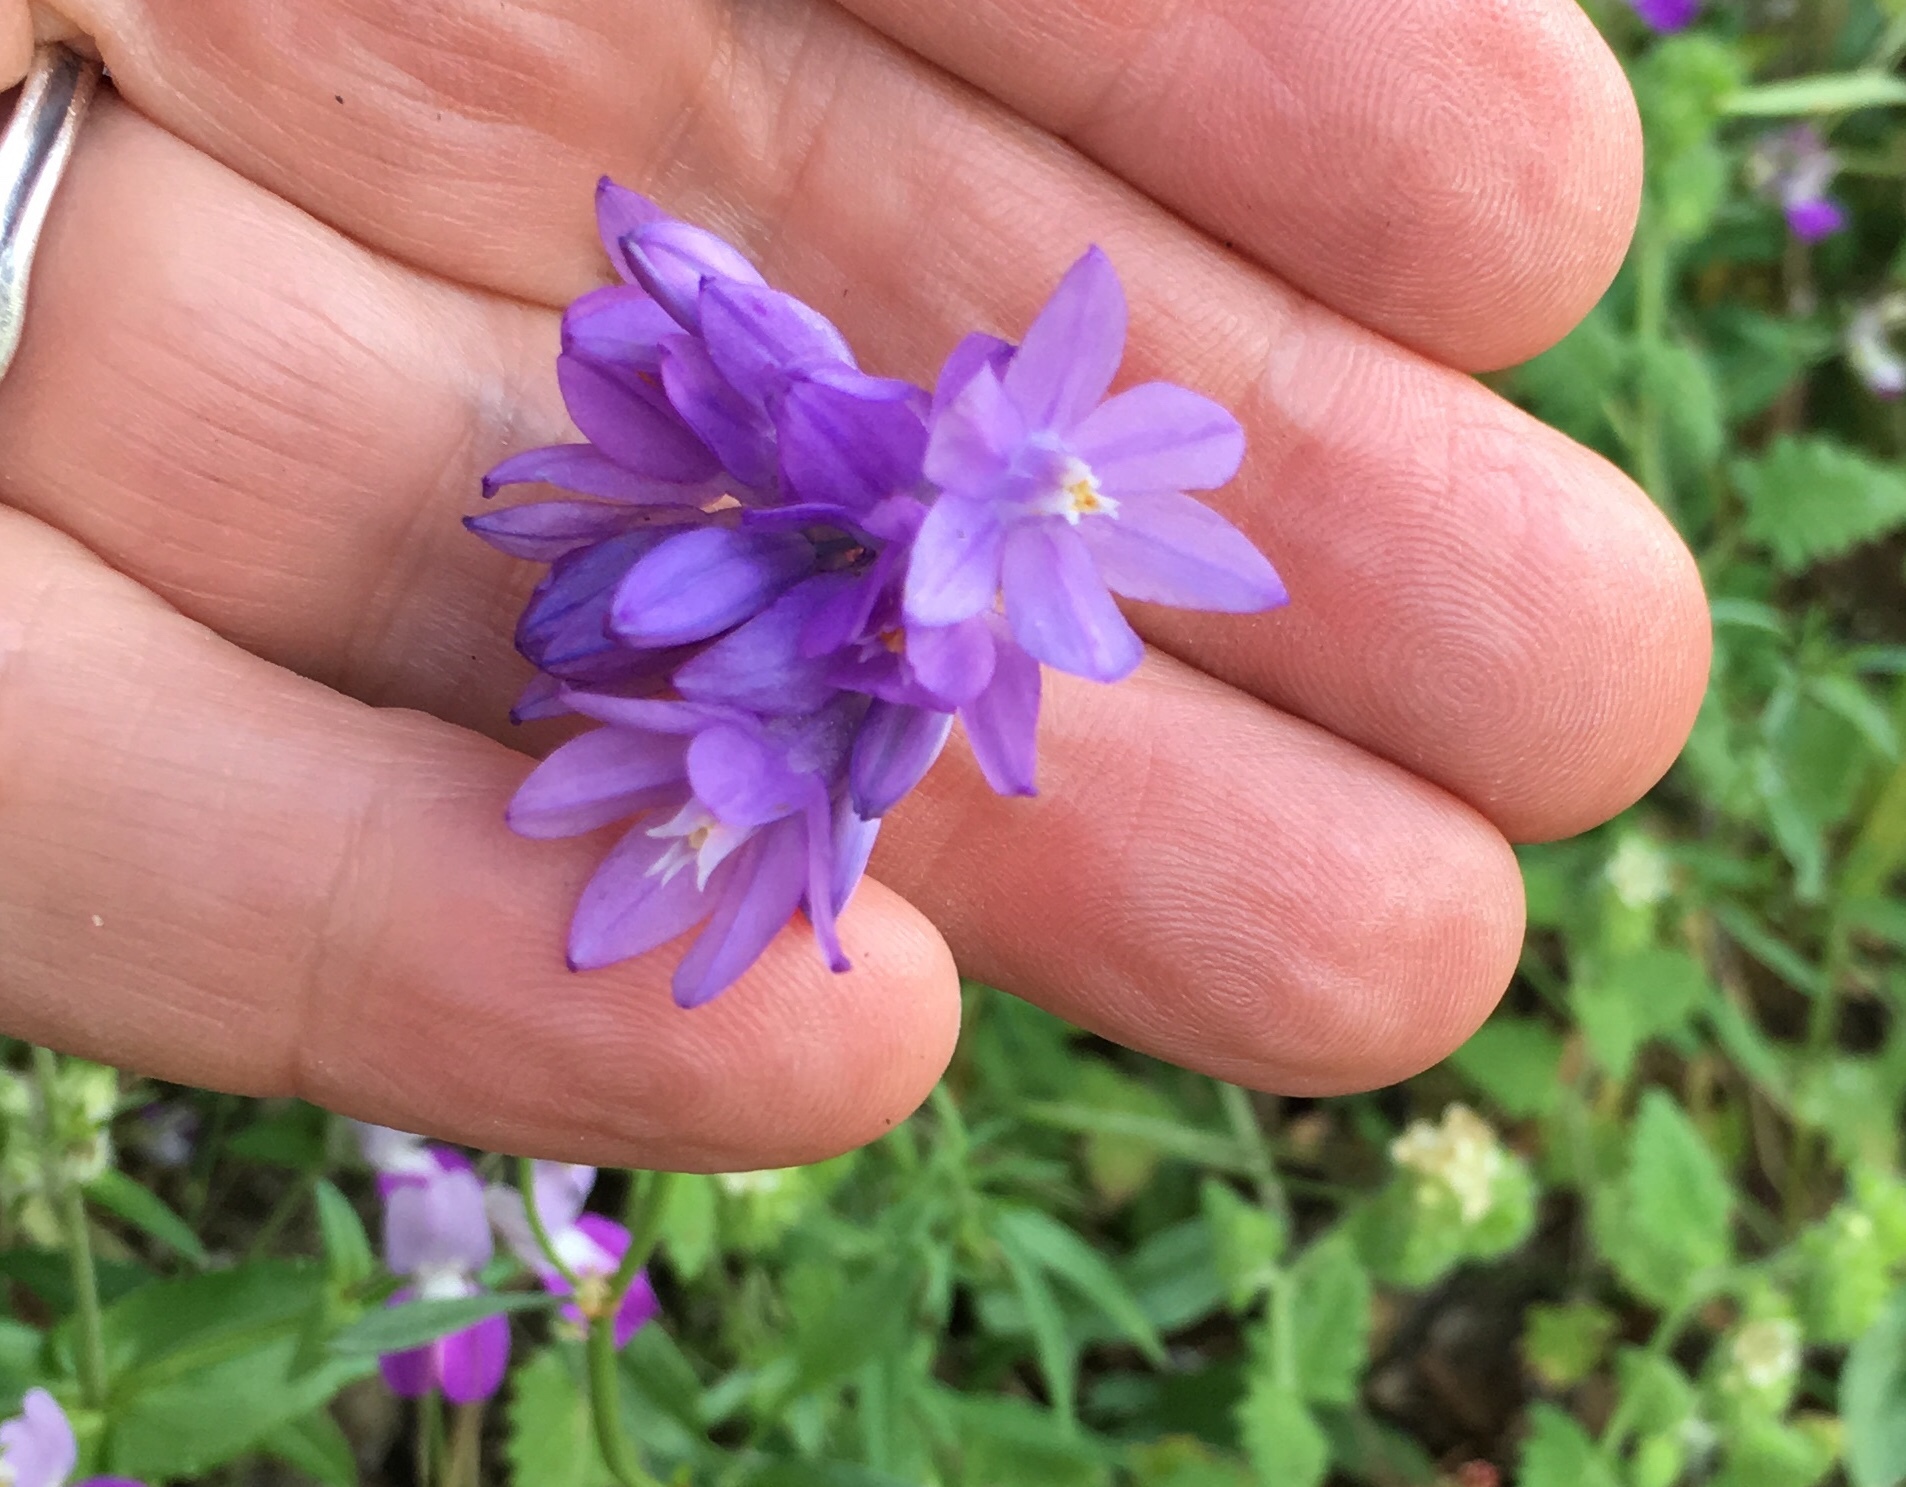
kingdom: Plantae
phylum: Tracheophyta
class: Liliopsida
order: Asparagales
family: Asparagaceae
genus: Dipterostemon
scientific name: Dipterostemon capitatus
